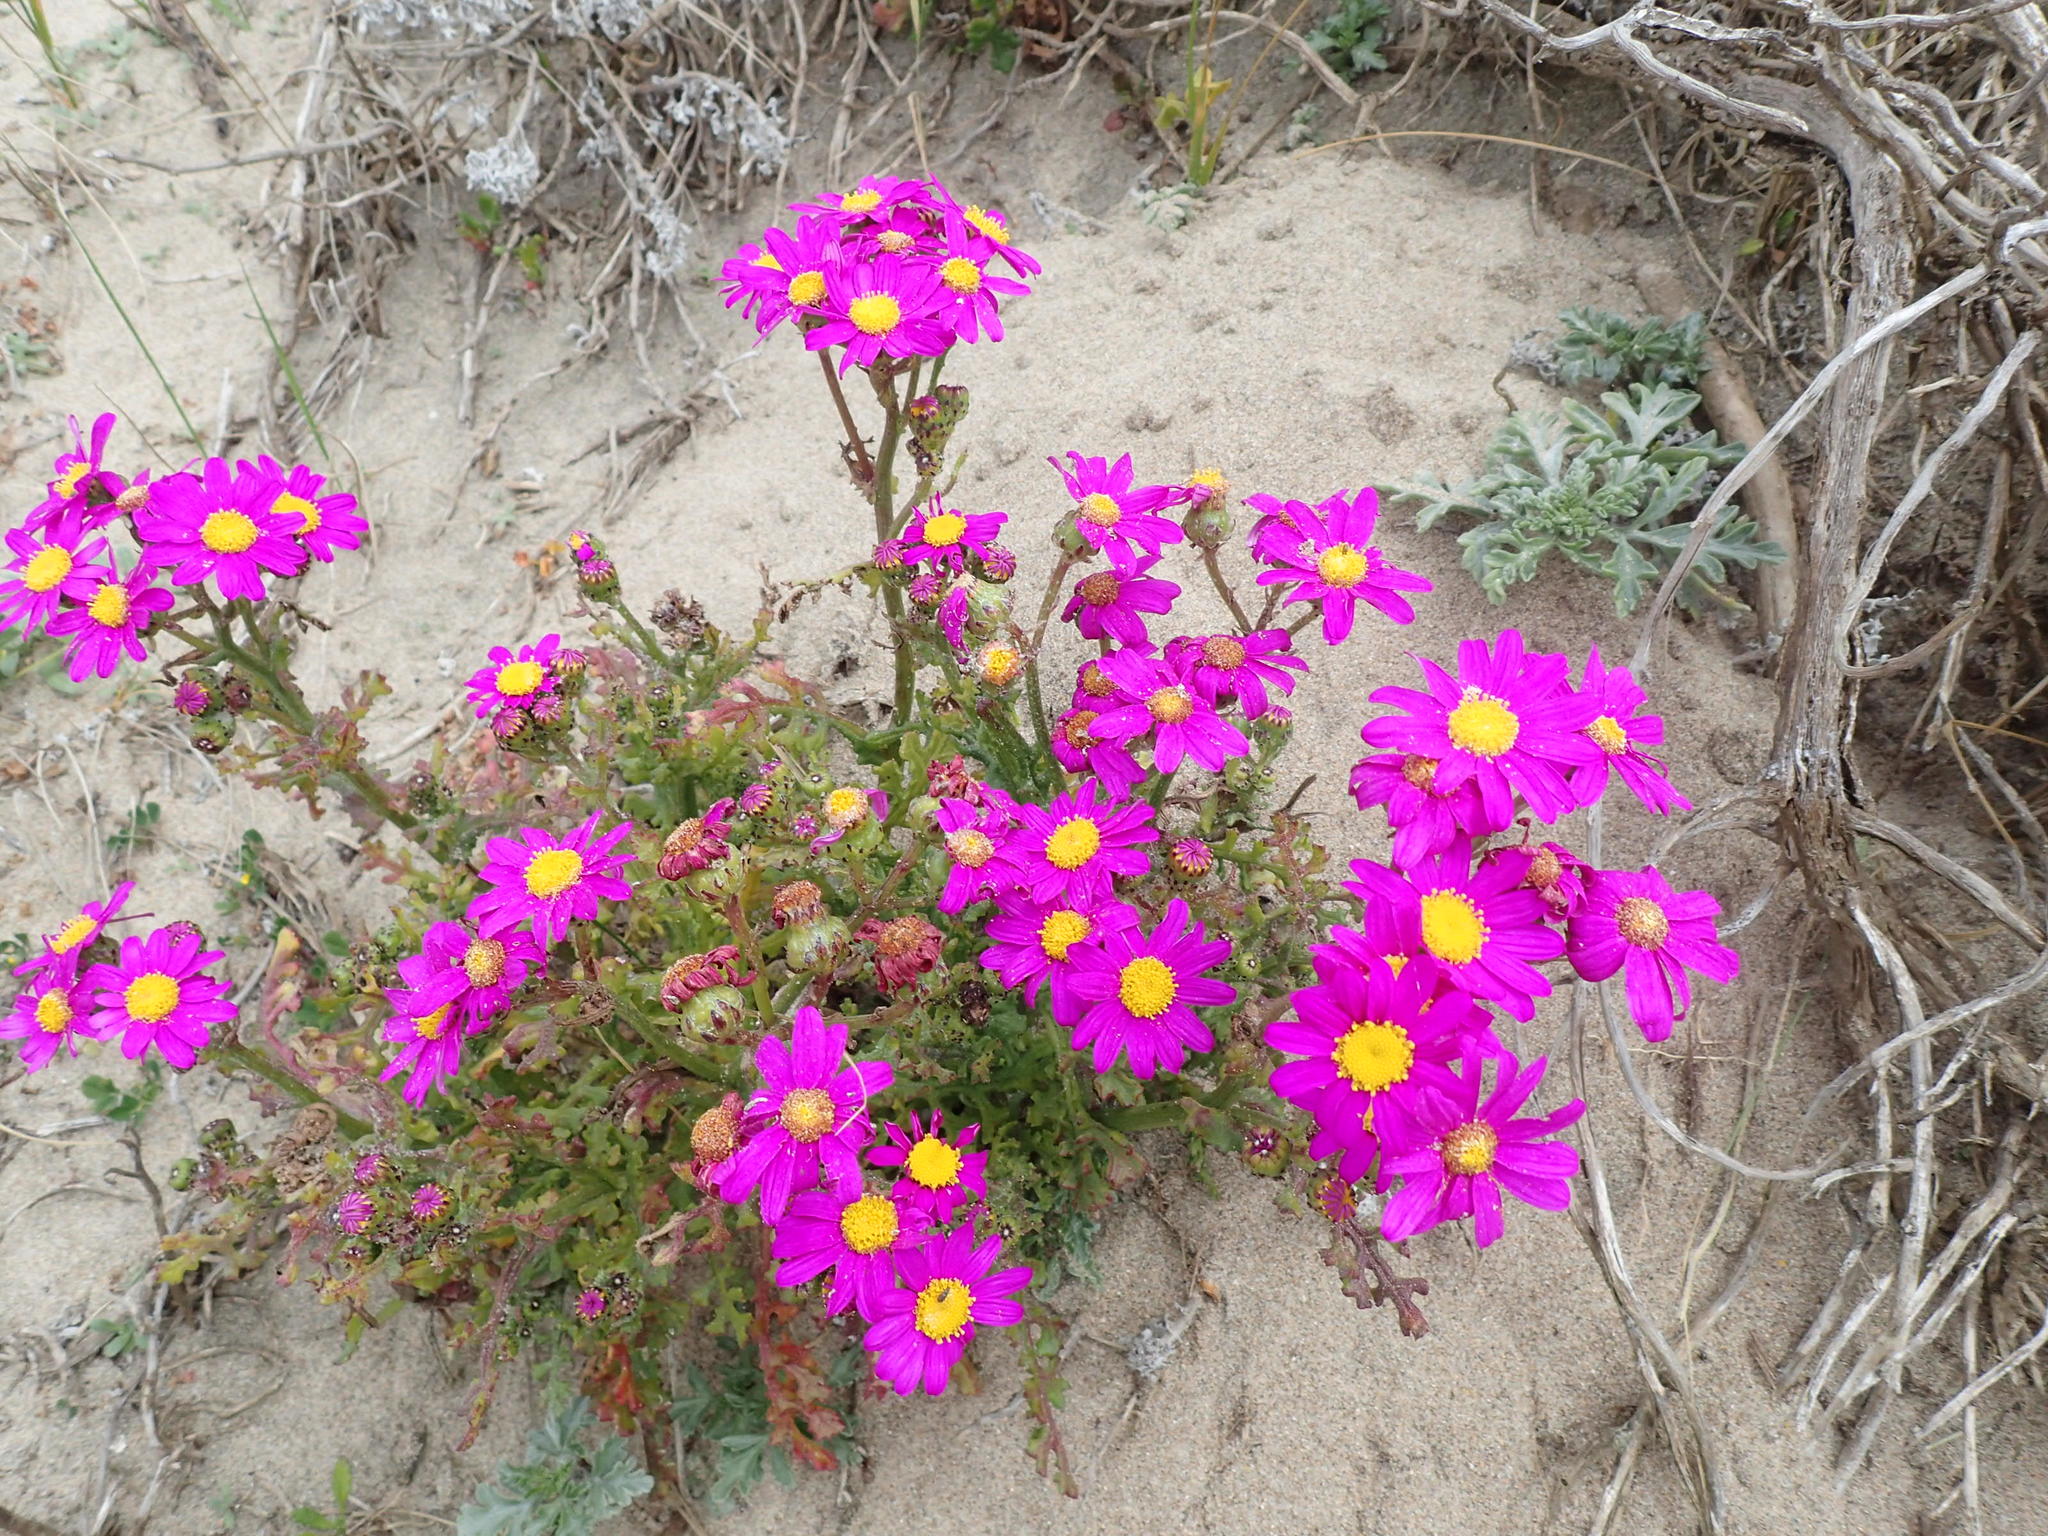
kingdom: Plantae
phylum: Tracheophyta
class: Magnoliopsida
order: Asterales
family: Asteraceae
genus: Senecio
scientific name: Senecio elegans
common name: Purple groundsel
